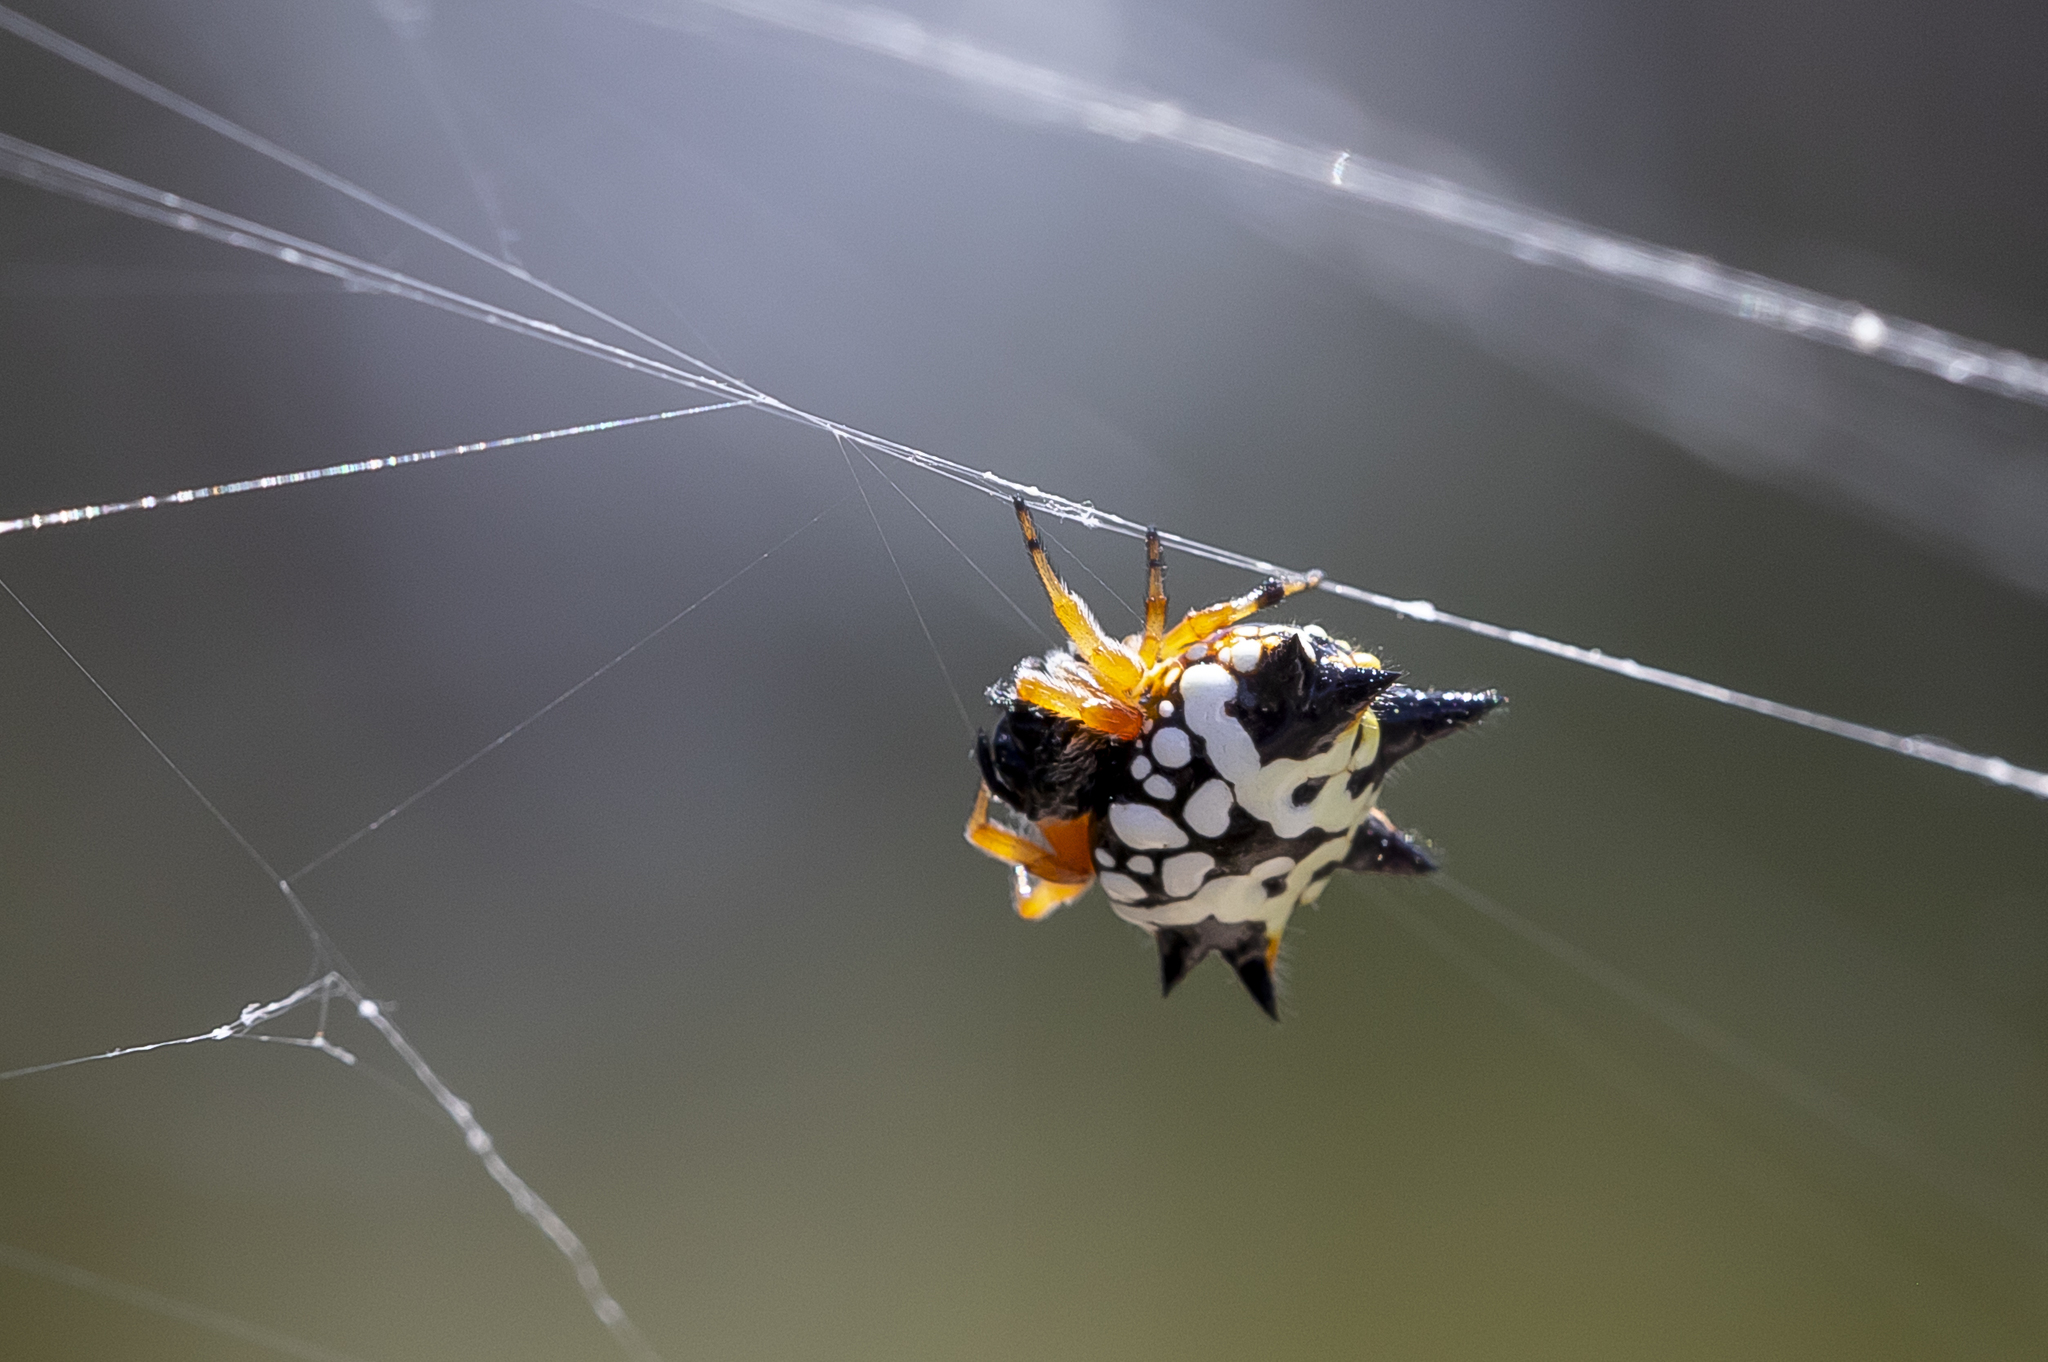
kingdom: Animalia
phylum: Arthropoda
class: Arachnida
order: Araneae
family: Araneidae
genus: Austracantha
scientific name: Austracantha minax
